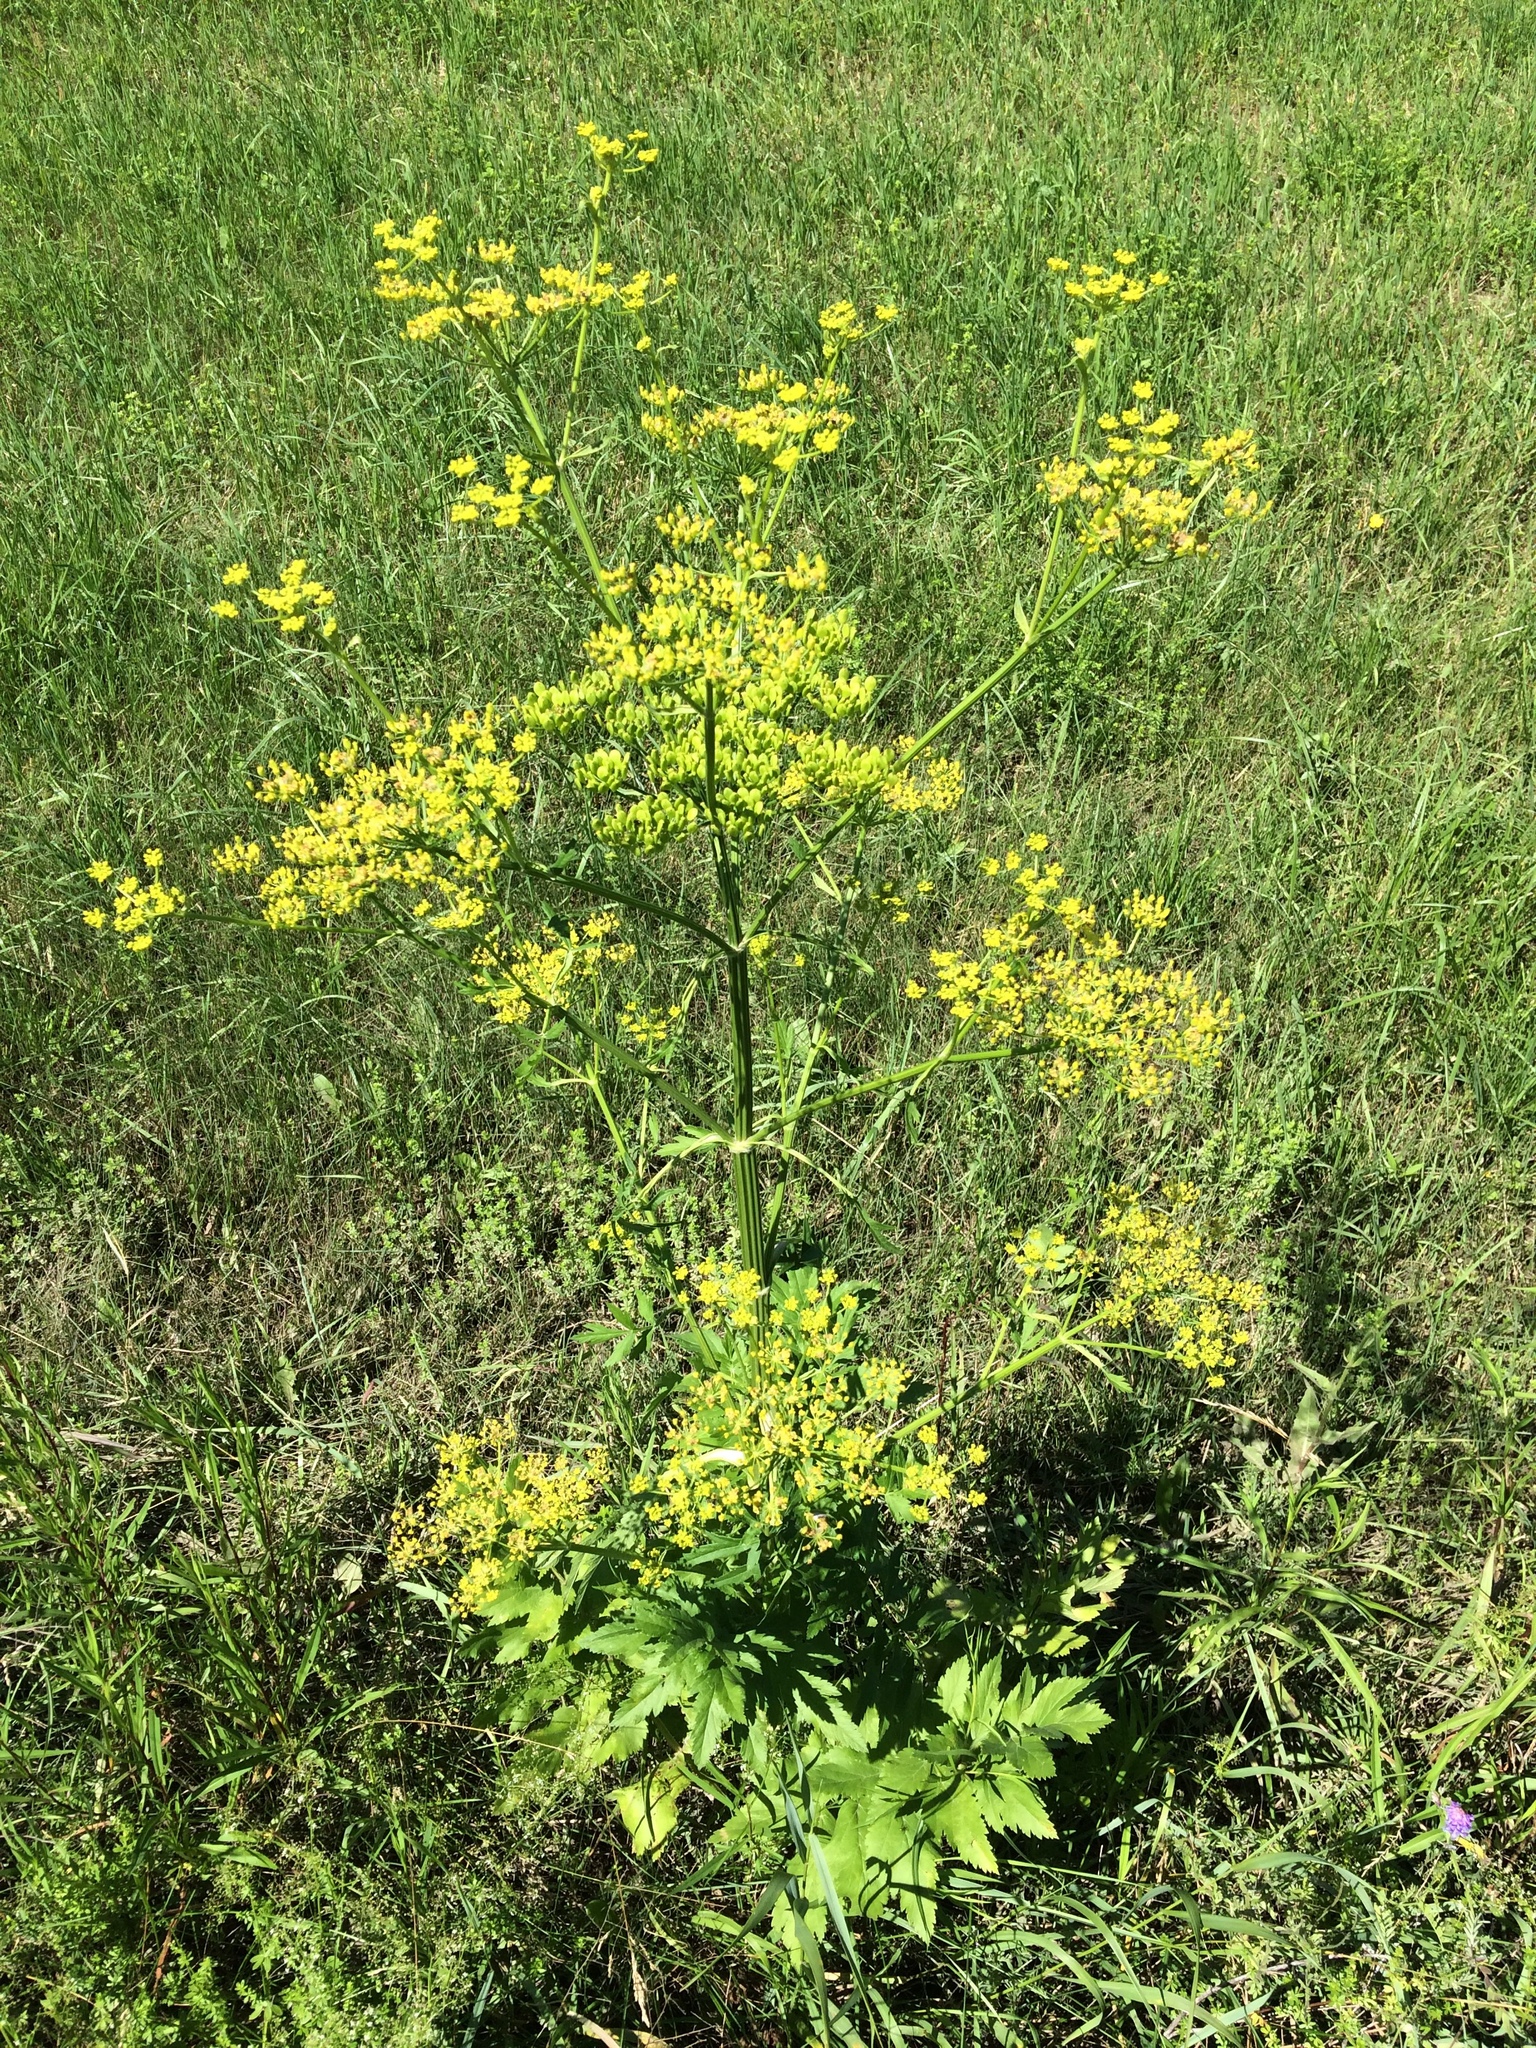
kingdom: Plantae
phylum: Tracheophyta
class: Magnoliopsida
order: Apiales
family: Apiaceae
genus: Pastinaca
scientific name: Pastinaca sativa
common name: Wild parsnip
